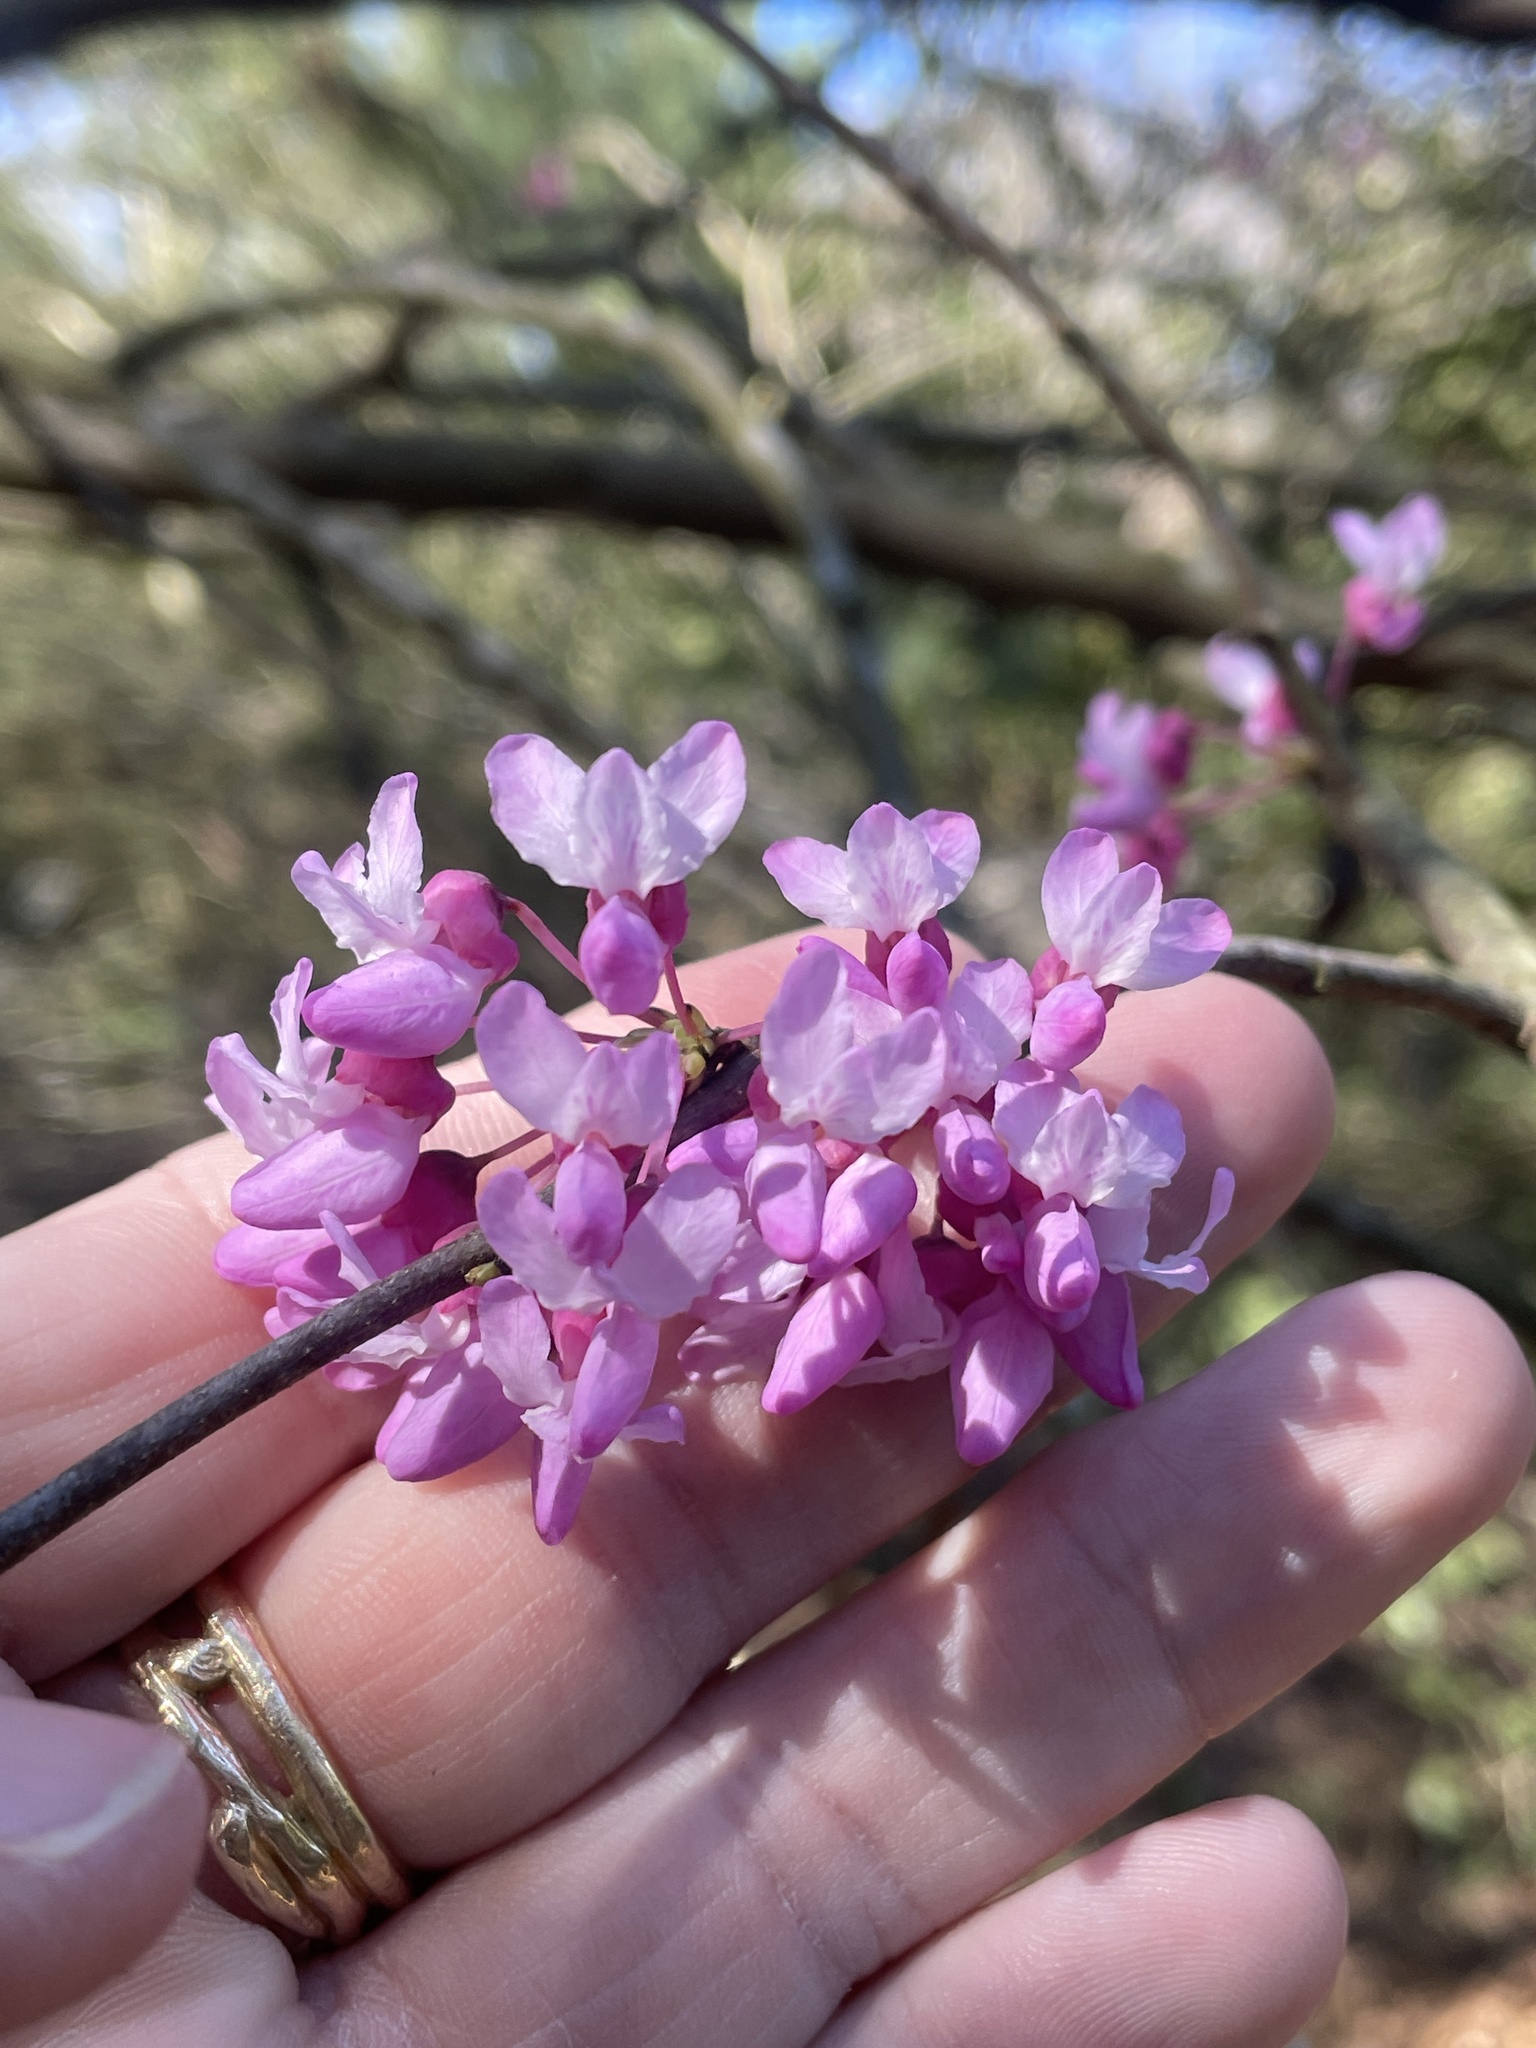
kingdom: Plantae
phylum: Tracheophyta
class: Magnoliopsida
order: Fabales
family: Fabaceae
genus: Cercis
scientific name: Cercis canadensis
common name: Eastern redbud
